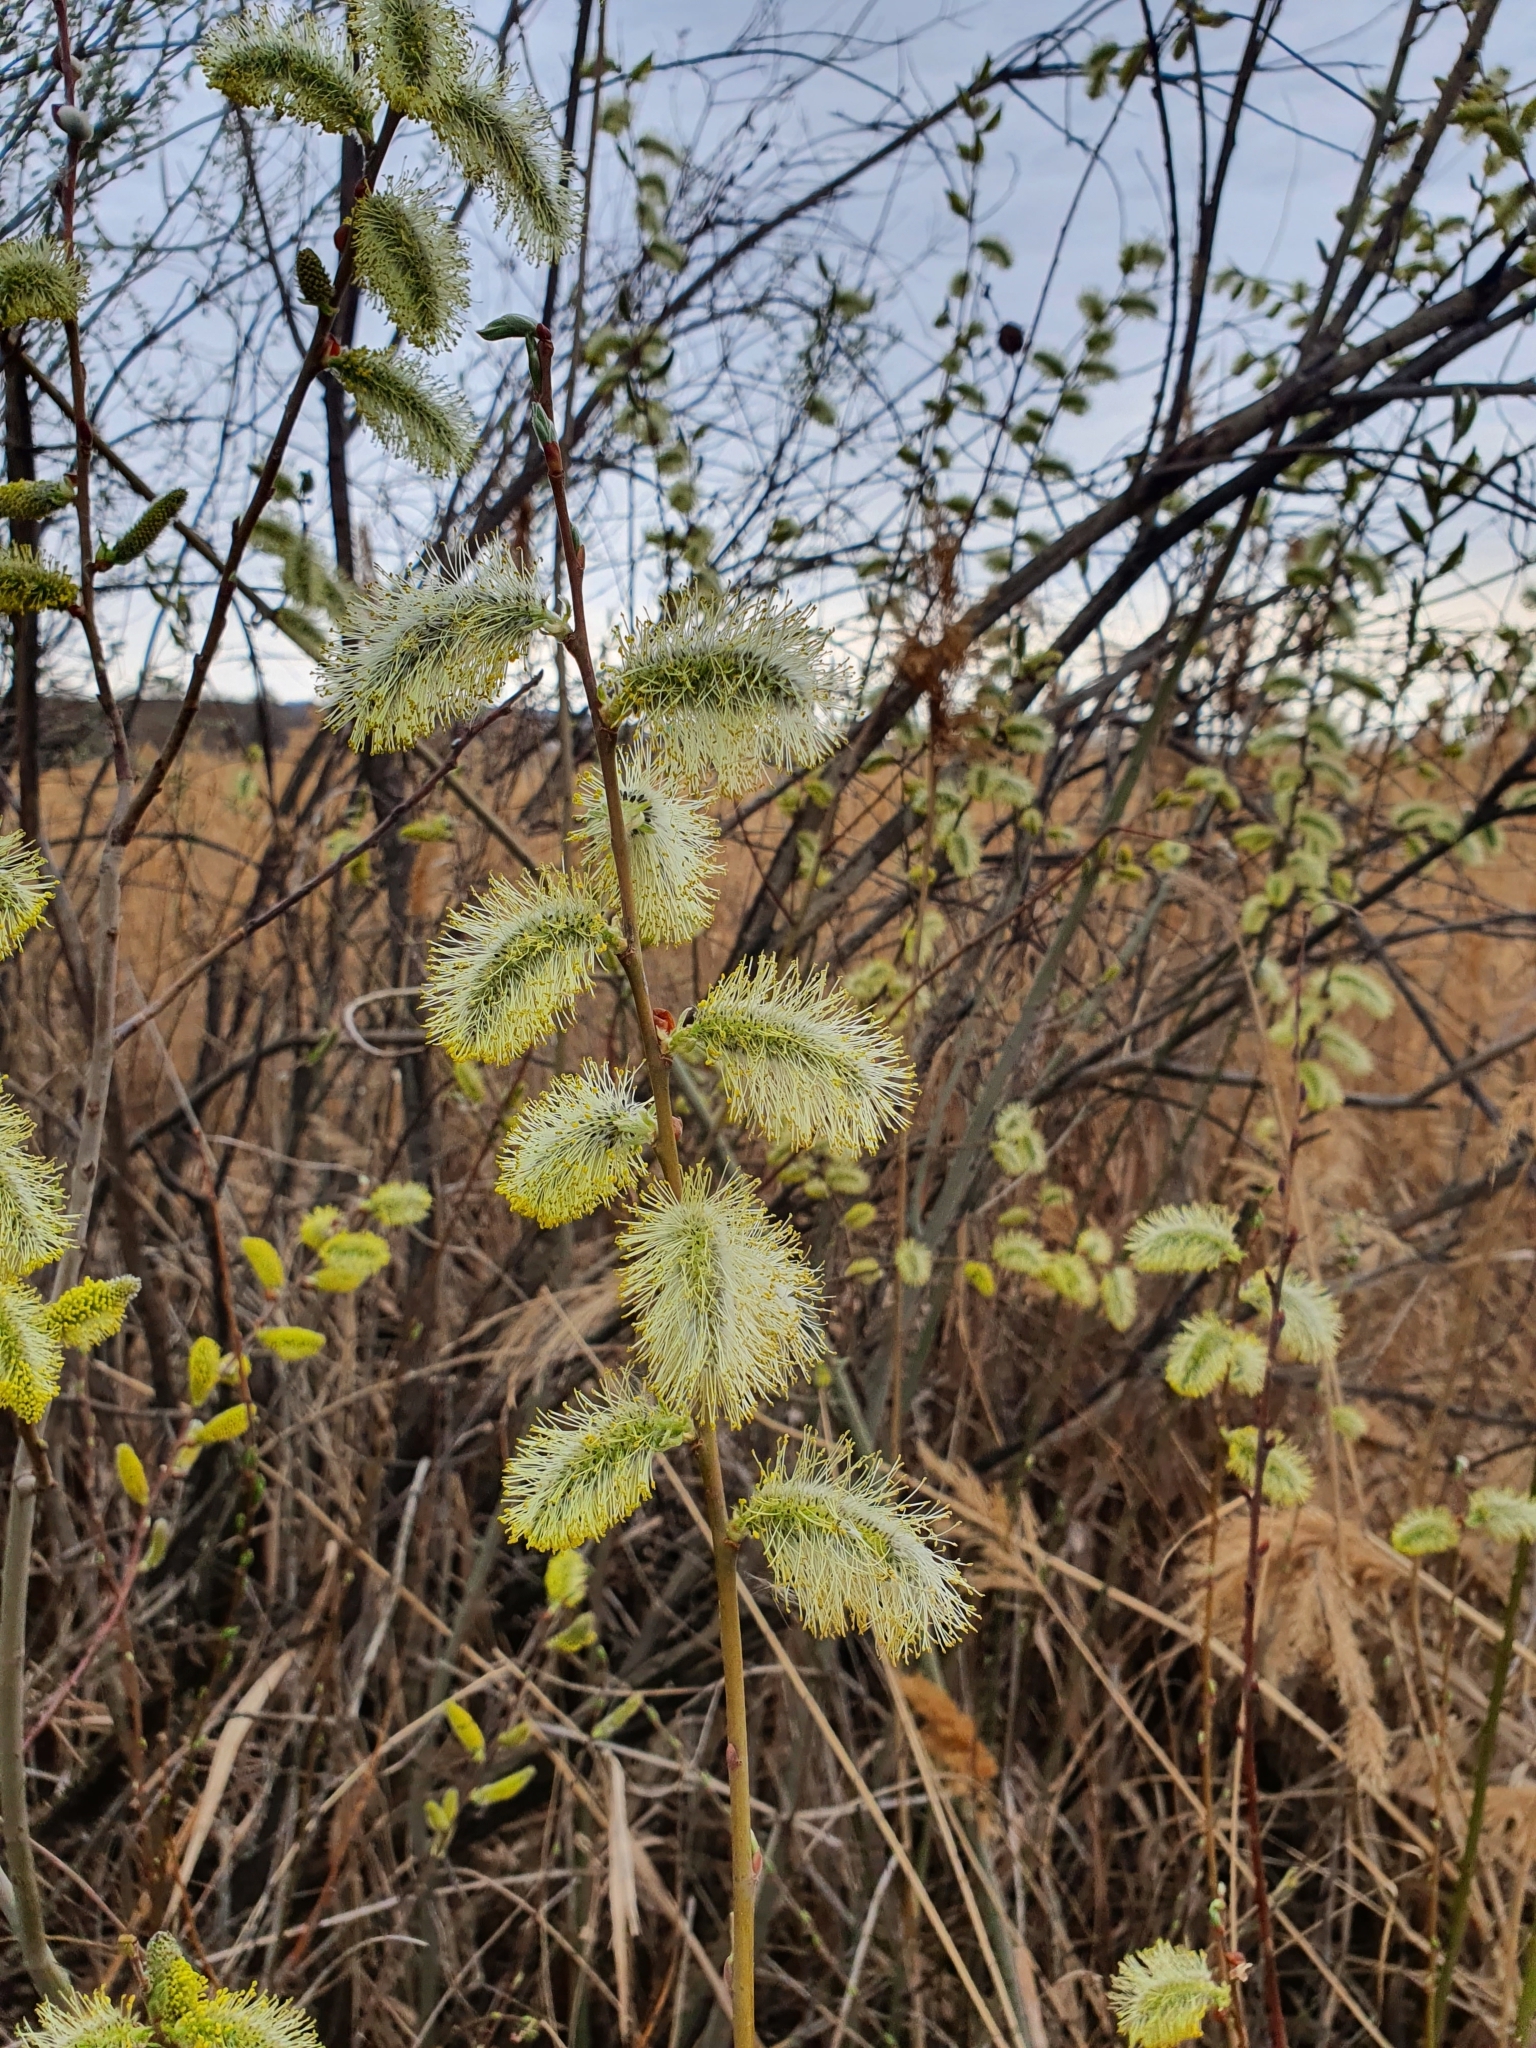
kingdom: Plantae
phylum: Tracheophyta
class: Magnoliopsida
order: Malpighiales
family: Salicaceae
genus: Salix
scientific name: Salix caprea
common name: Goat willow
